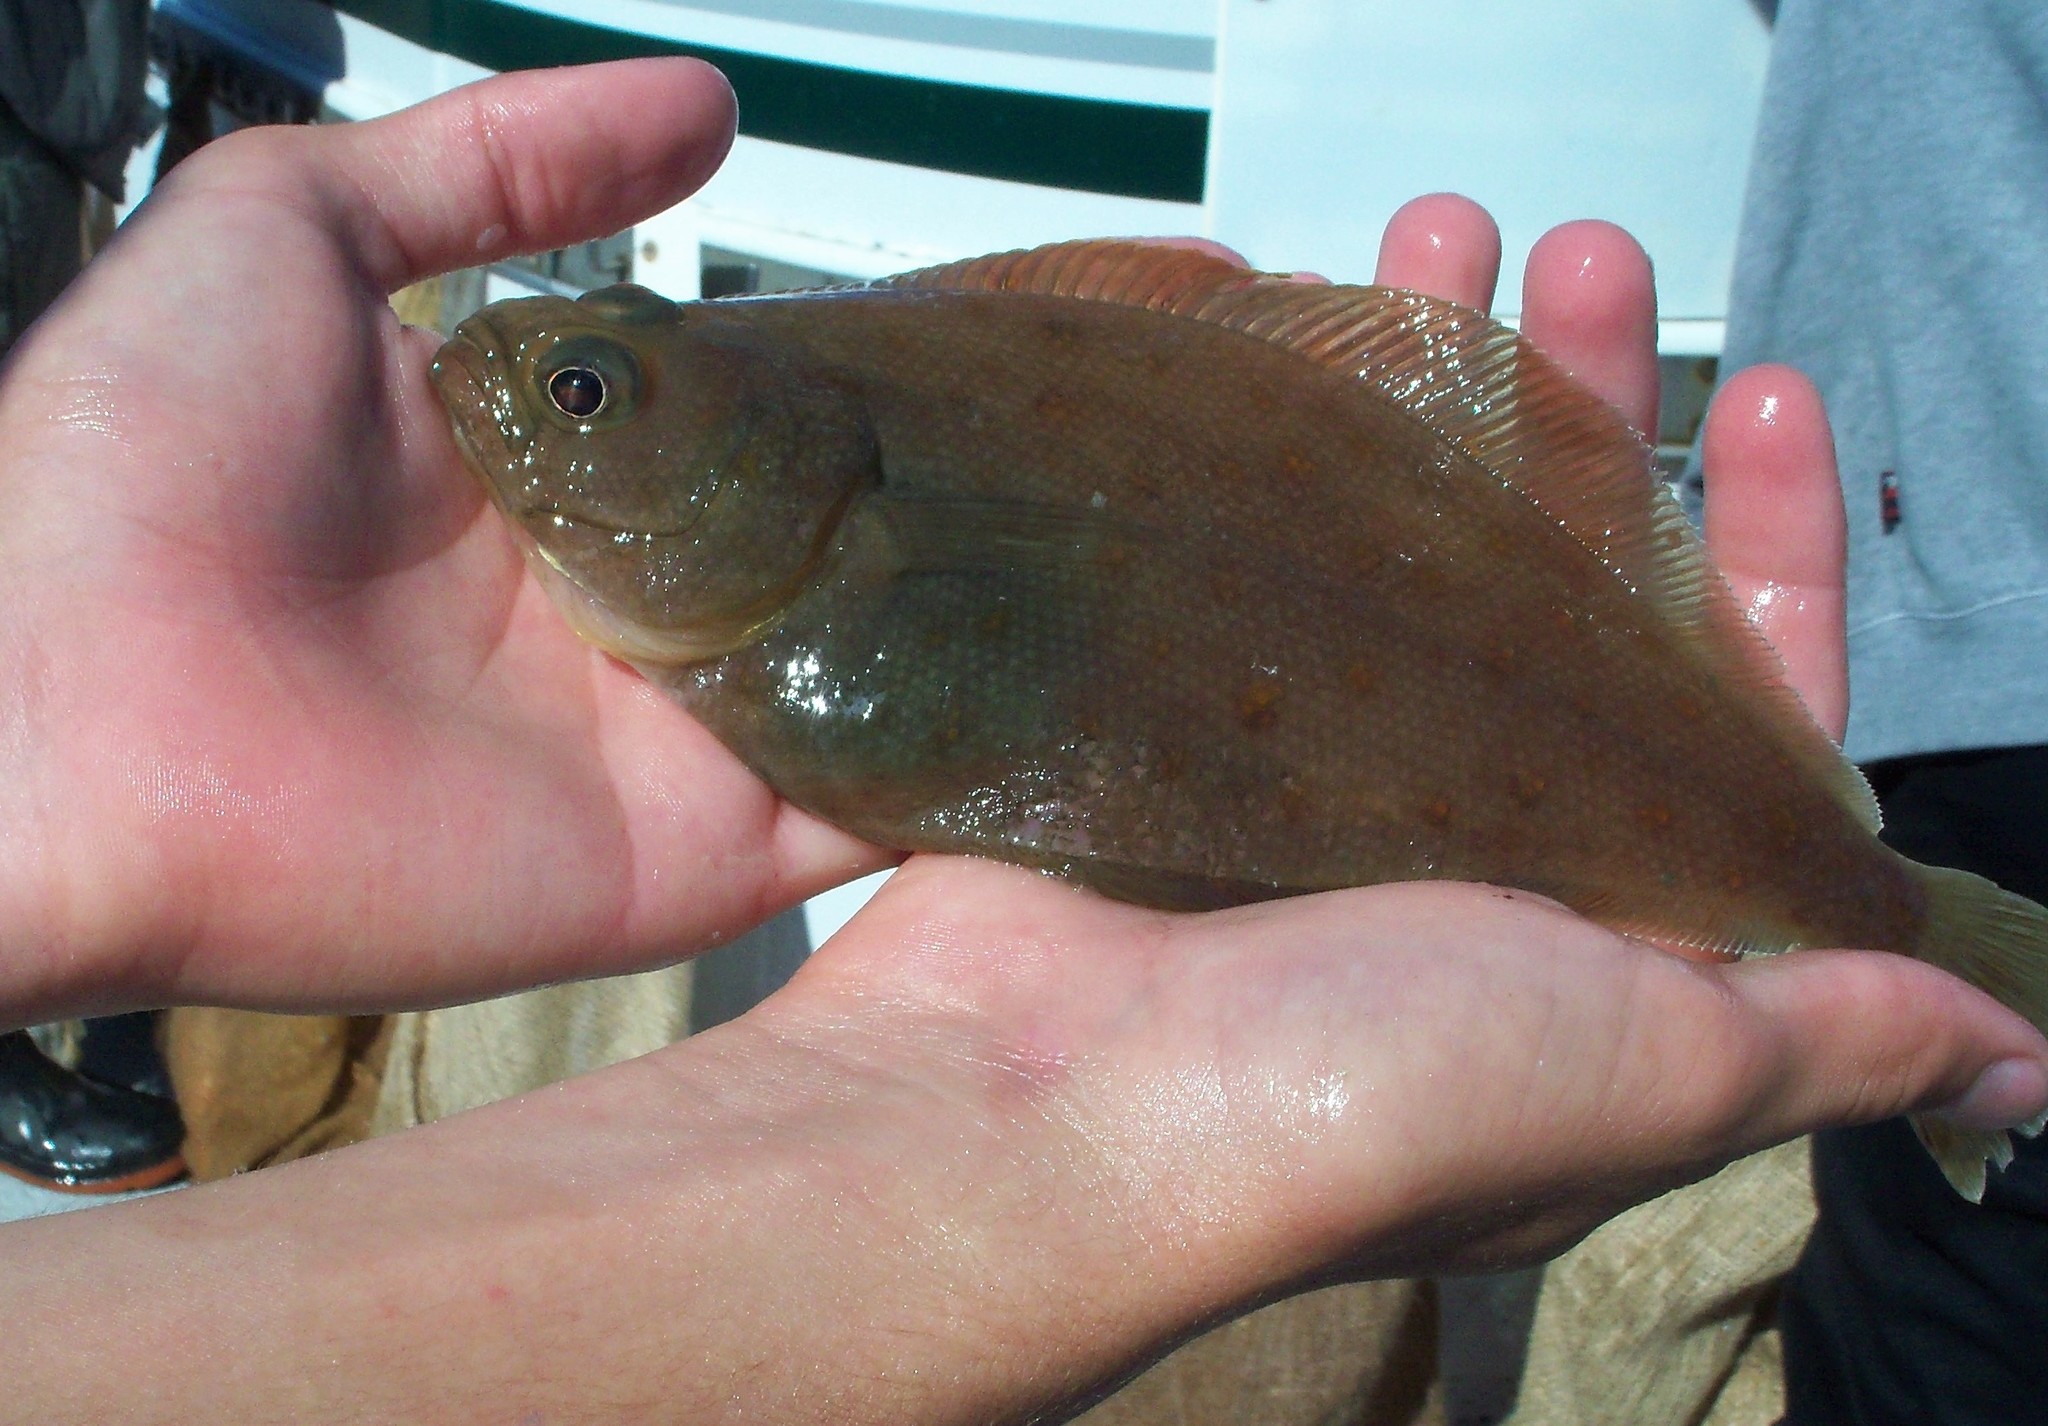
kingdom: Animalia
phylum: Chordata
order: Pleuronectiformes
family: Paralichthyidae
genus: Citharichthys
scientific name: Citharichthys sordidus
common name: Pacific sanddab
